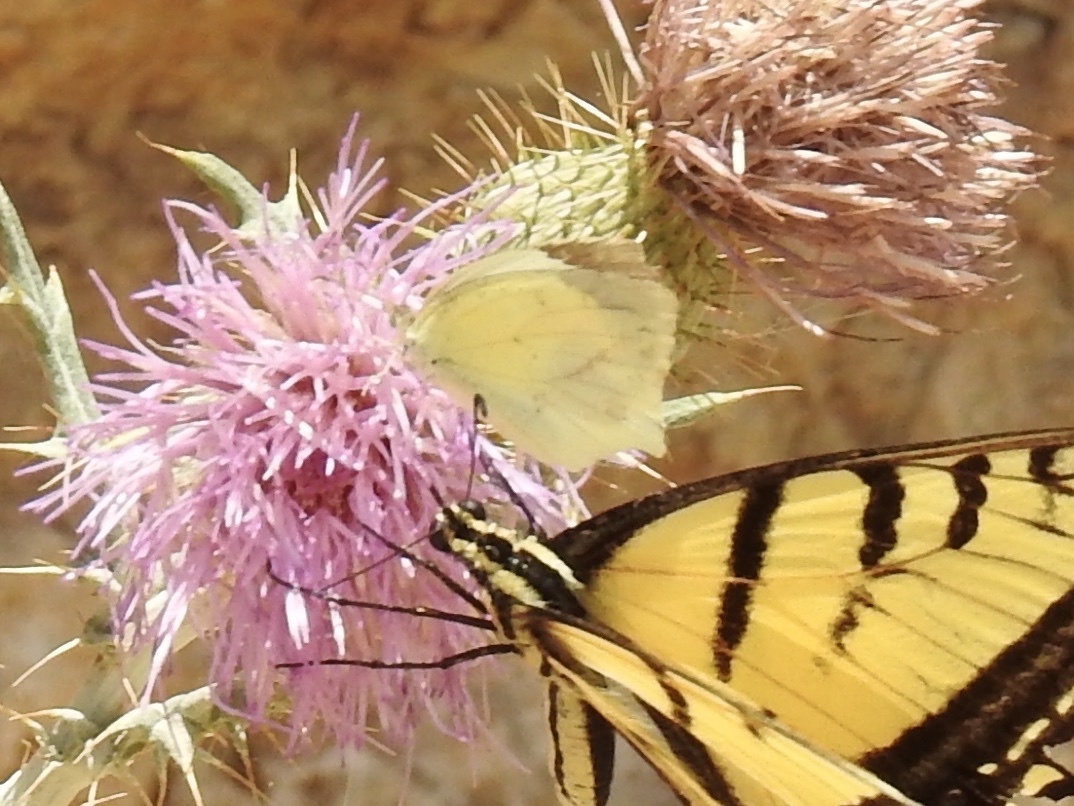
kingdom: Animalia
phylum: Arthropoda
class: Insecta
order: Lepidoptera
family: Pieridae
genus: Abaeis
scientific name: Abaeis mexicana
